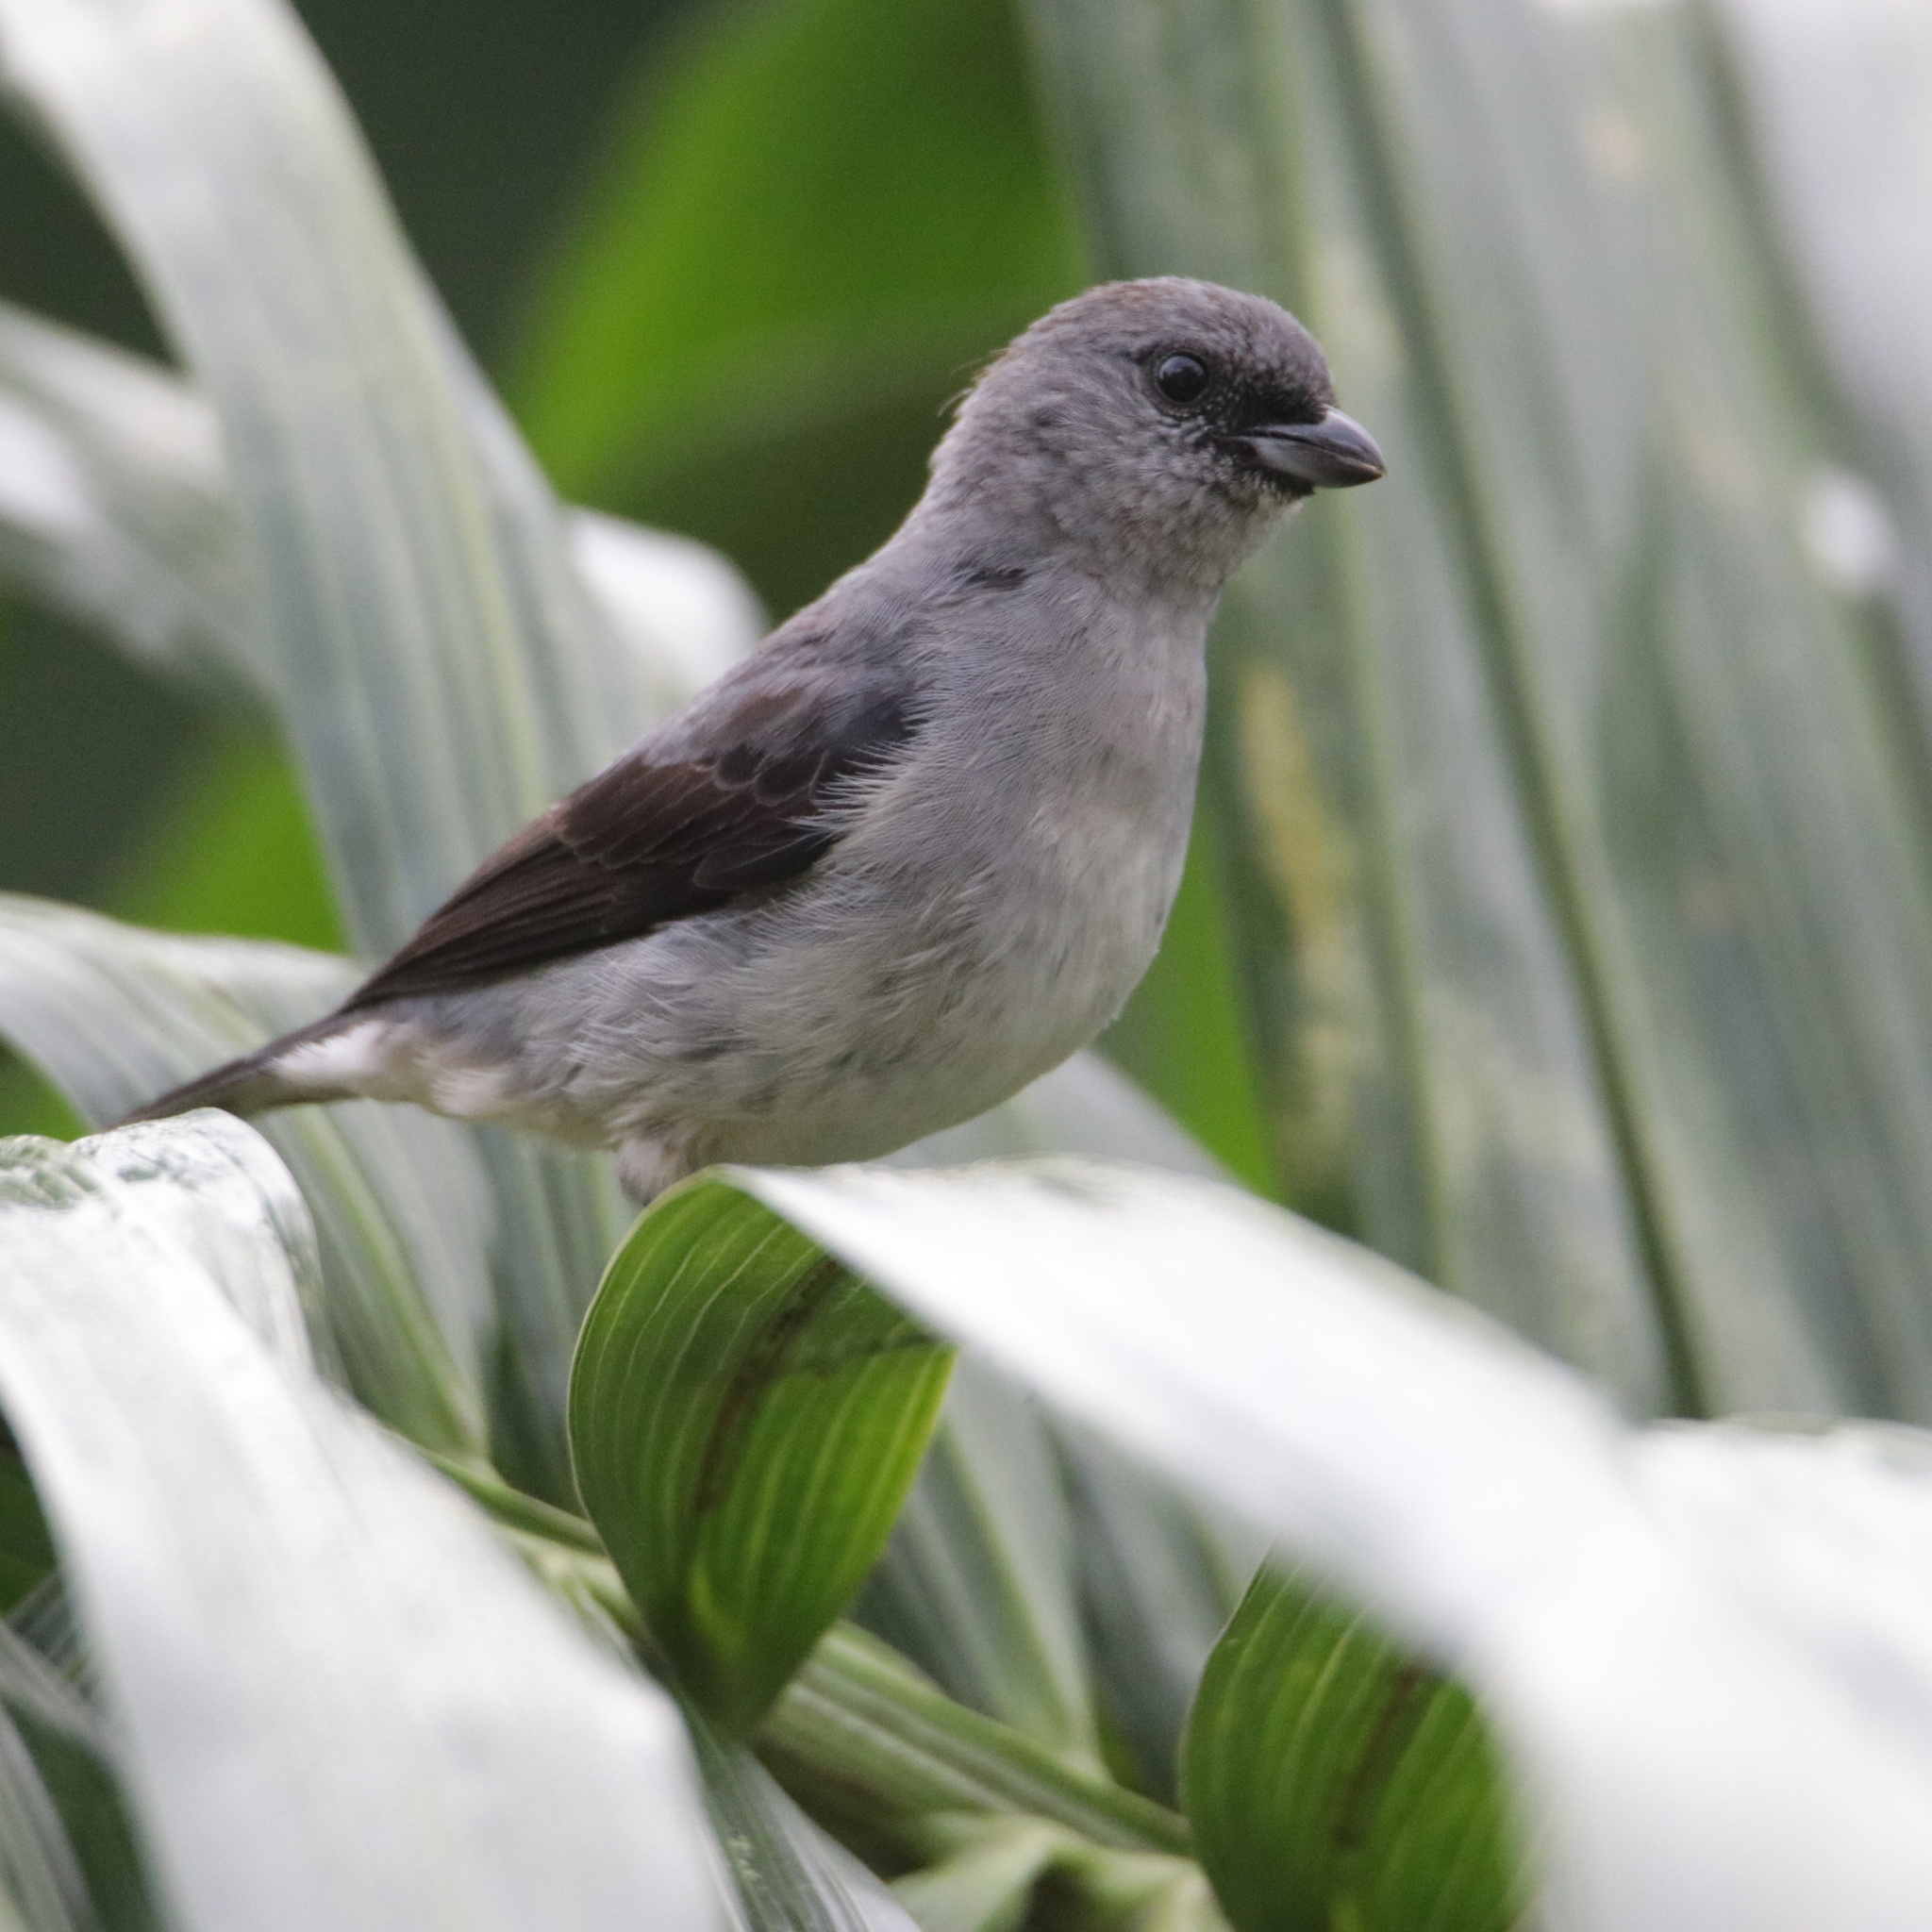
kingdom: Animalia
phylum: Chordata
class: Aves
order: Passeriformes
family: Thraupidae
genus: Tangara
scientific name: Tangara inornata
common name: Plain-colored tanager
